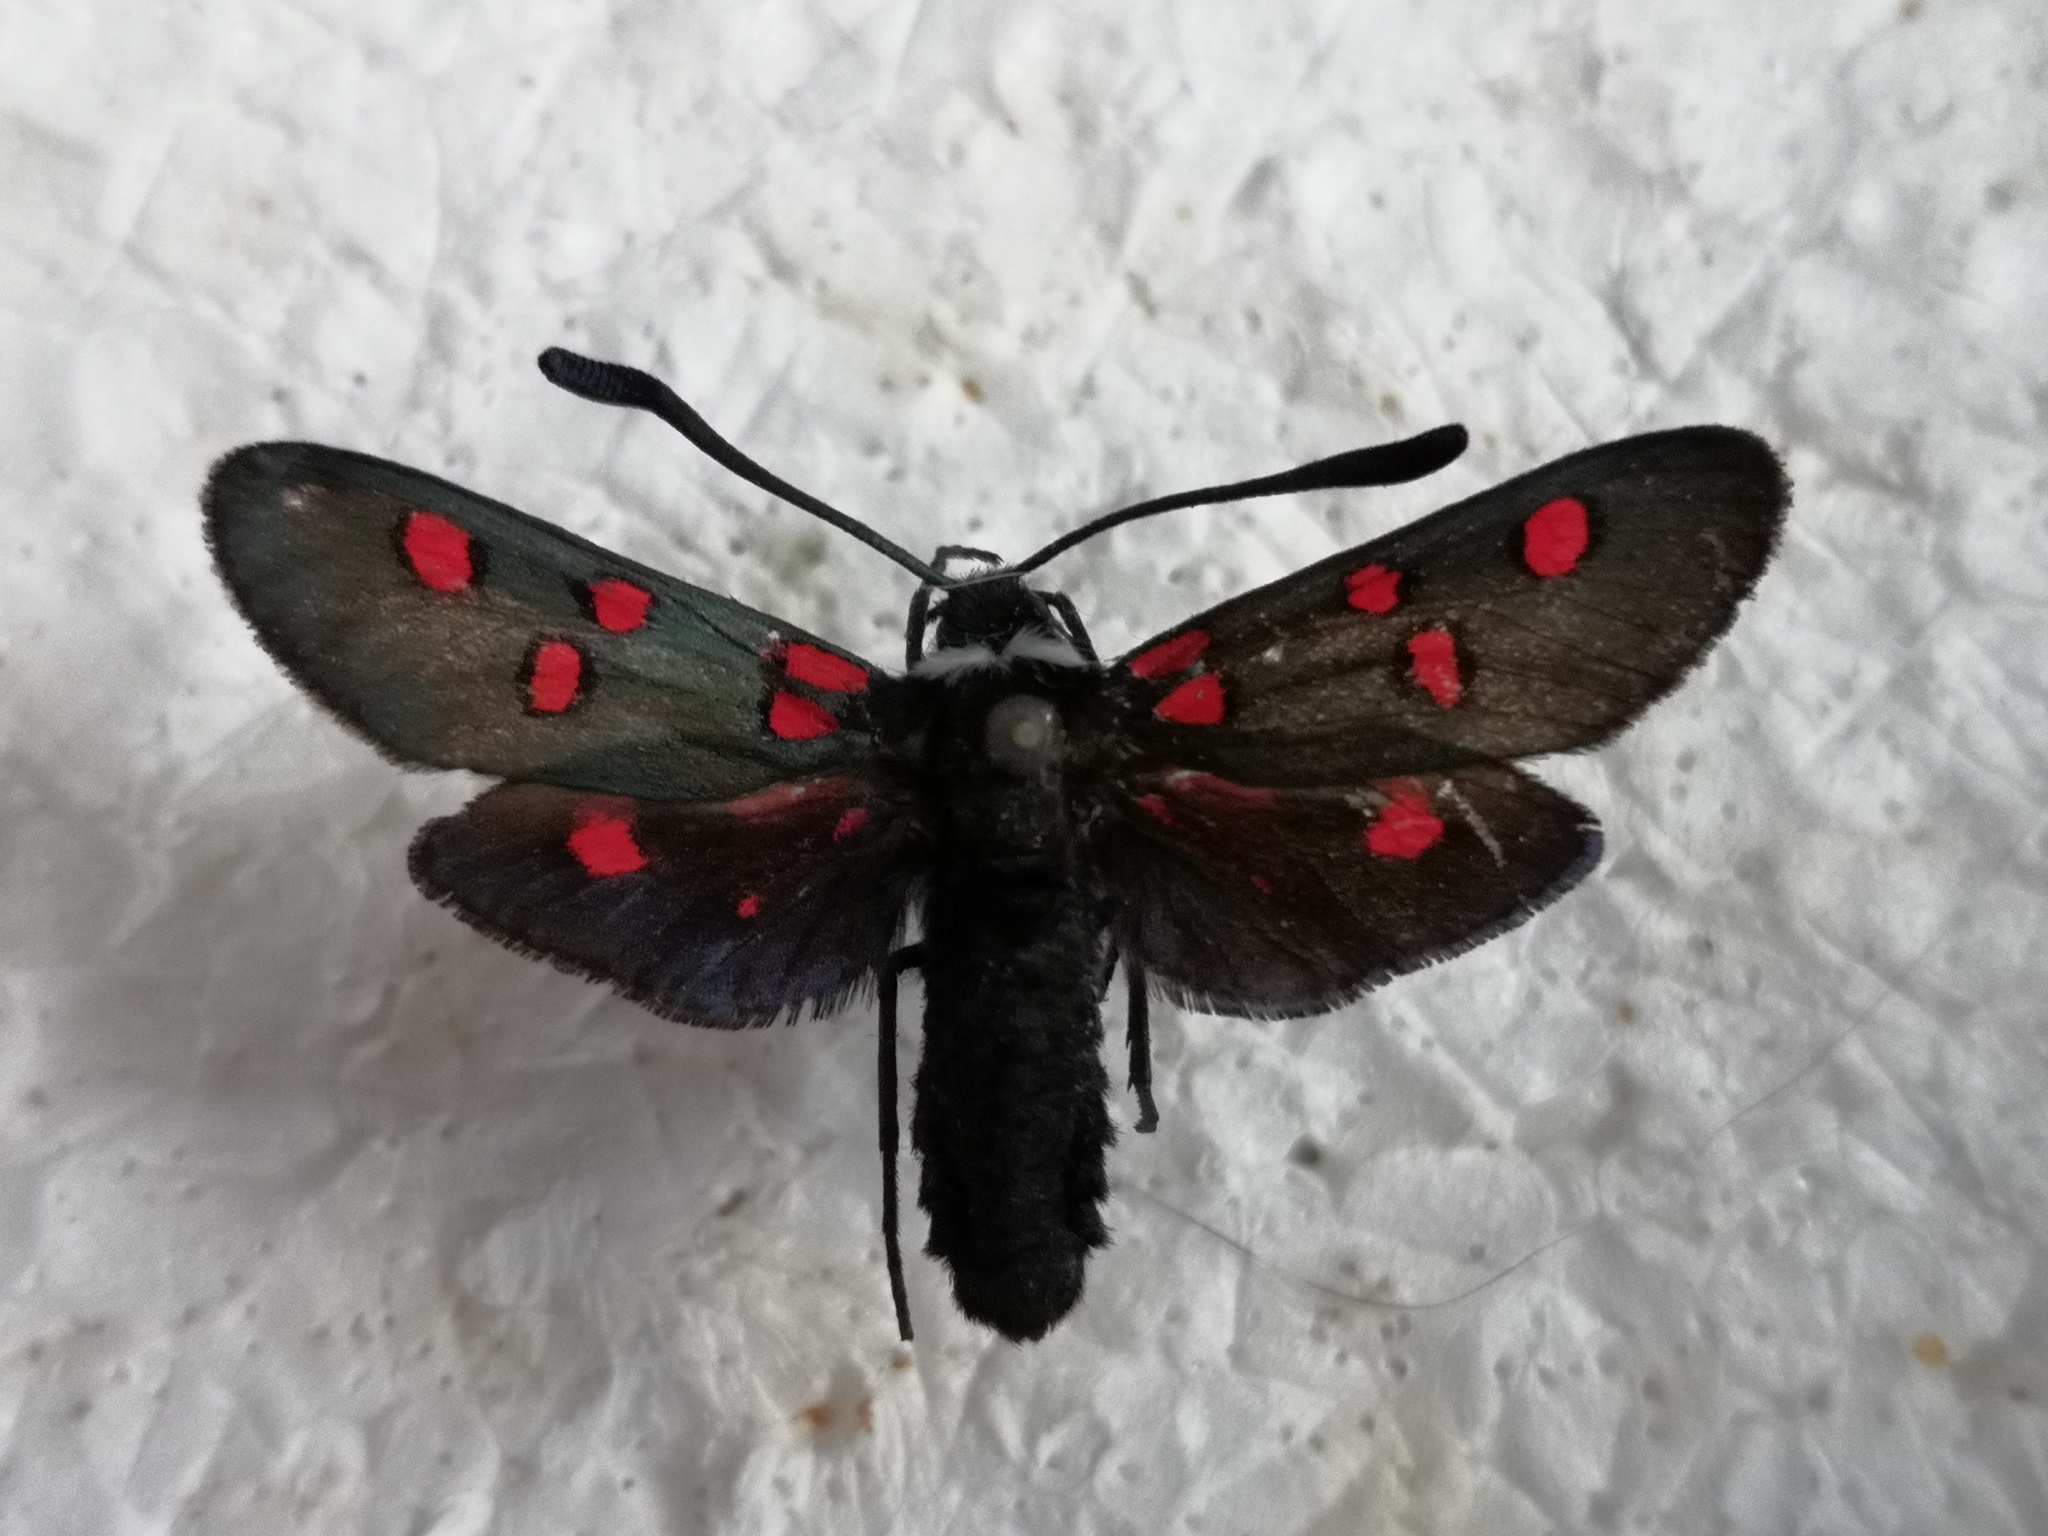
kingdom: Animalia
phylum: Arthropoda
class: Insecta
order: Lepidoptera
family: Zygaenidae
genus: Zygaena
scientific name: Zygaena lavandulae
